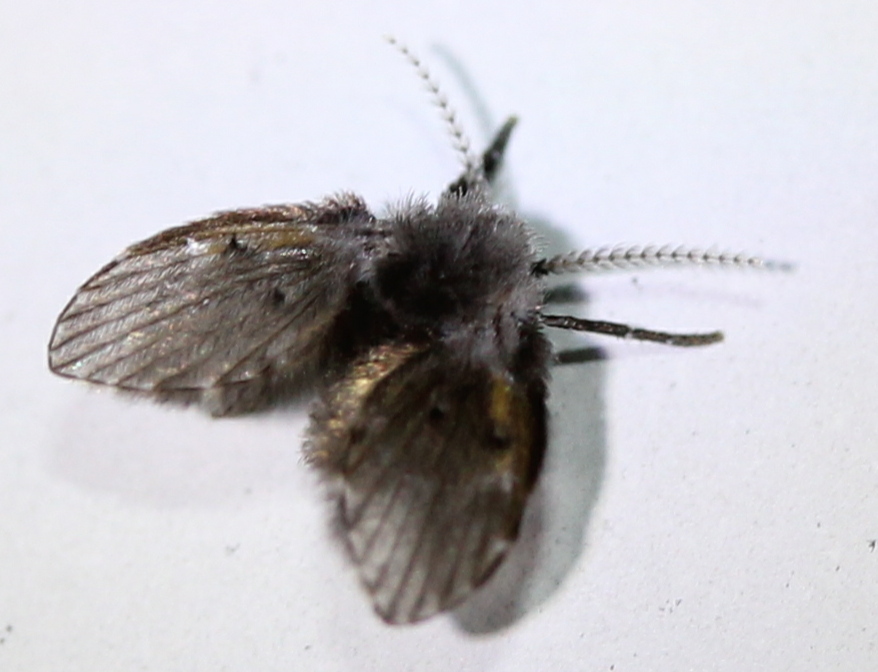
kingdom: Animalia
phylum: Arthropoda
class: Insecta
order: Diptera
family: Psychodidae
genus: Clogmia
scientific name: Clogmia albipunctatus
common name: White-spotted moth fly
